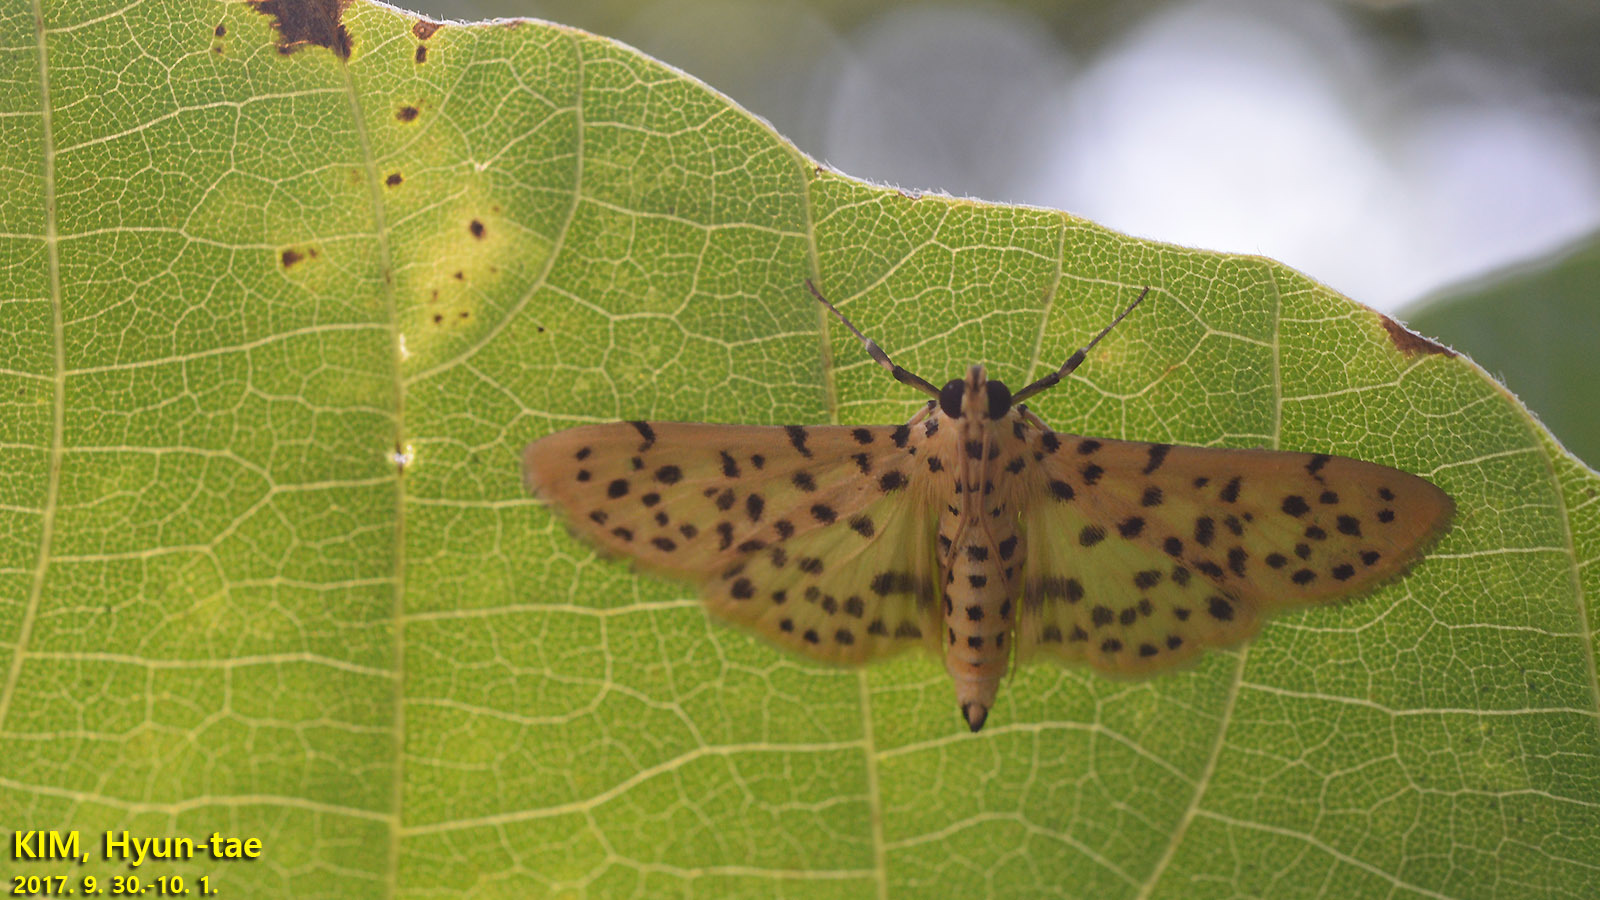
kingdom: Animalia
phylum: Arthropoda
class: Insecta
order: Lepidoptera
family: Crambidae
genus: Conogethes
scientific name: Conogethes punctiferalis
